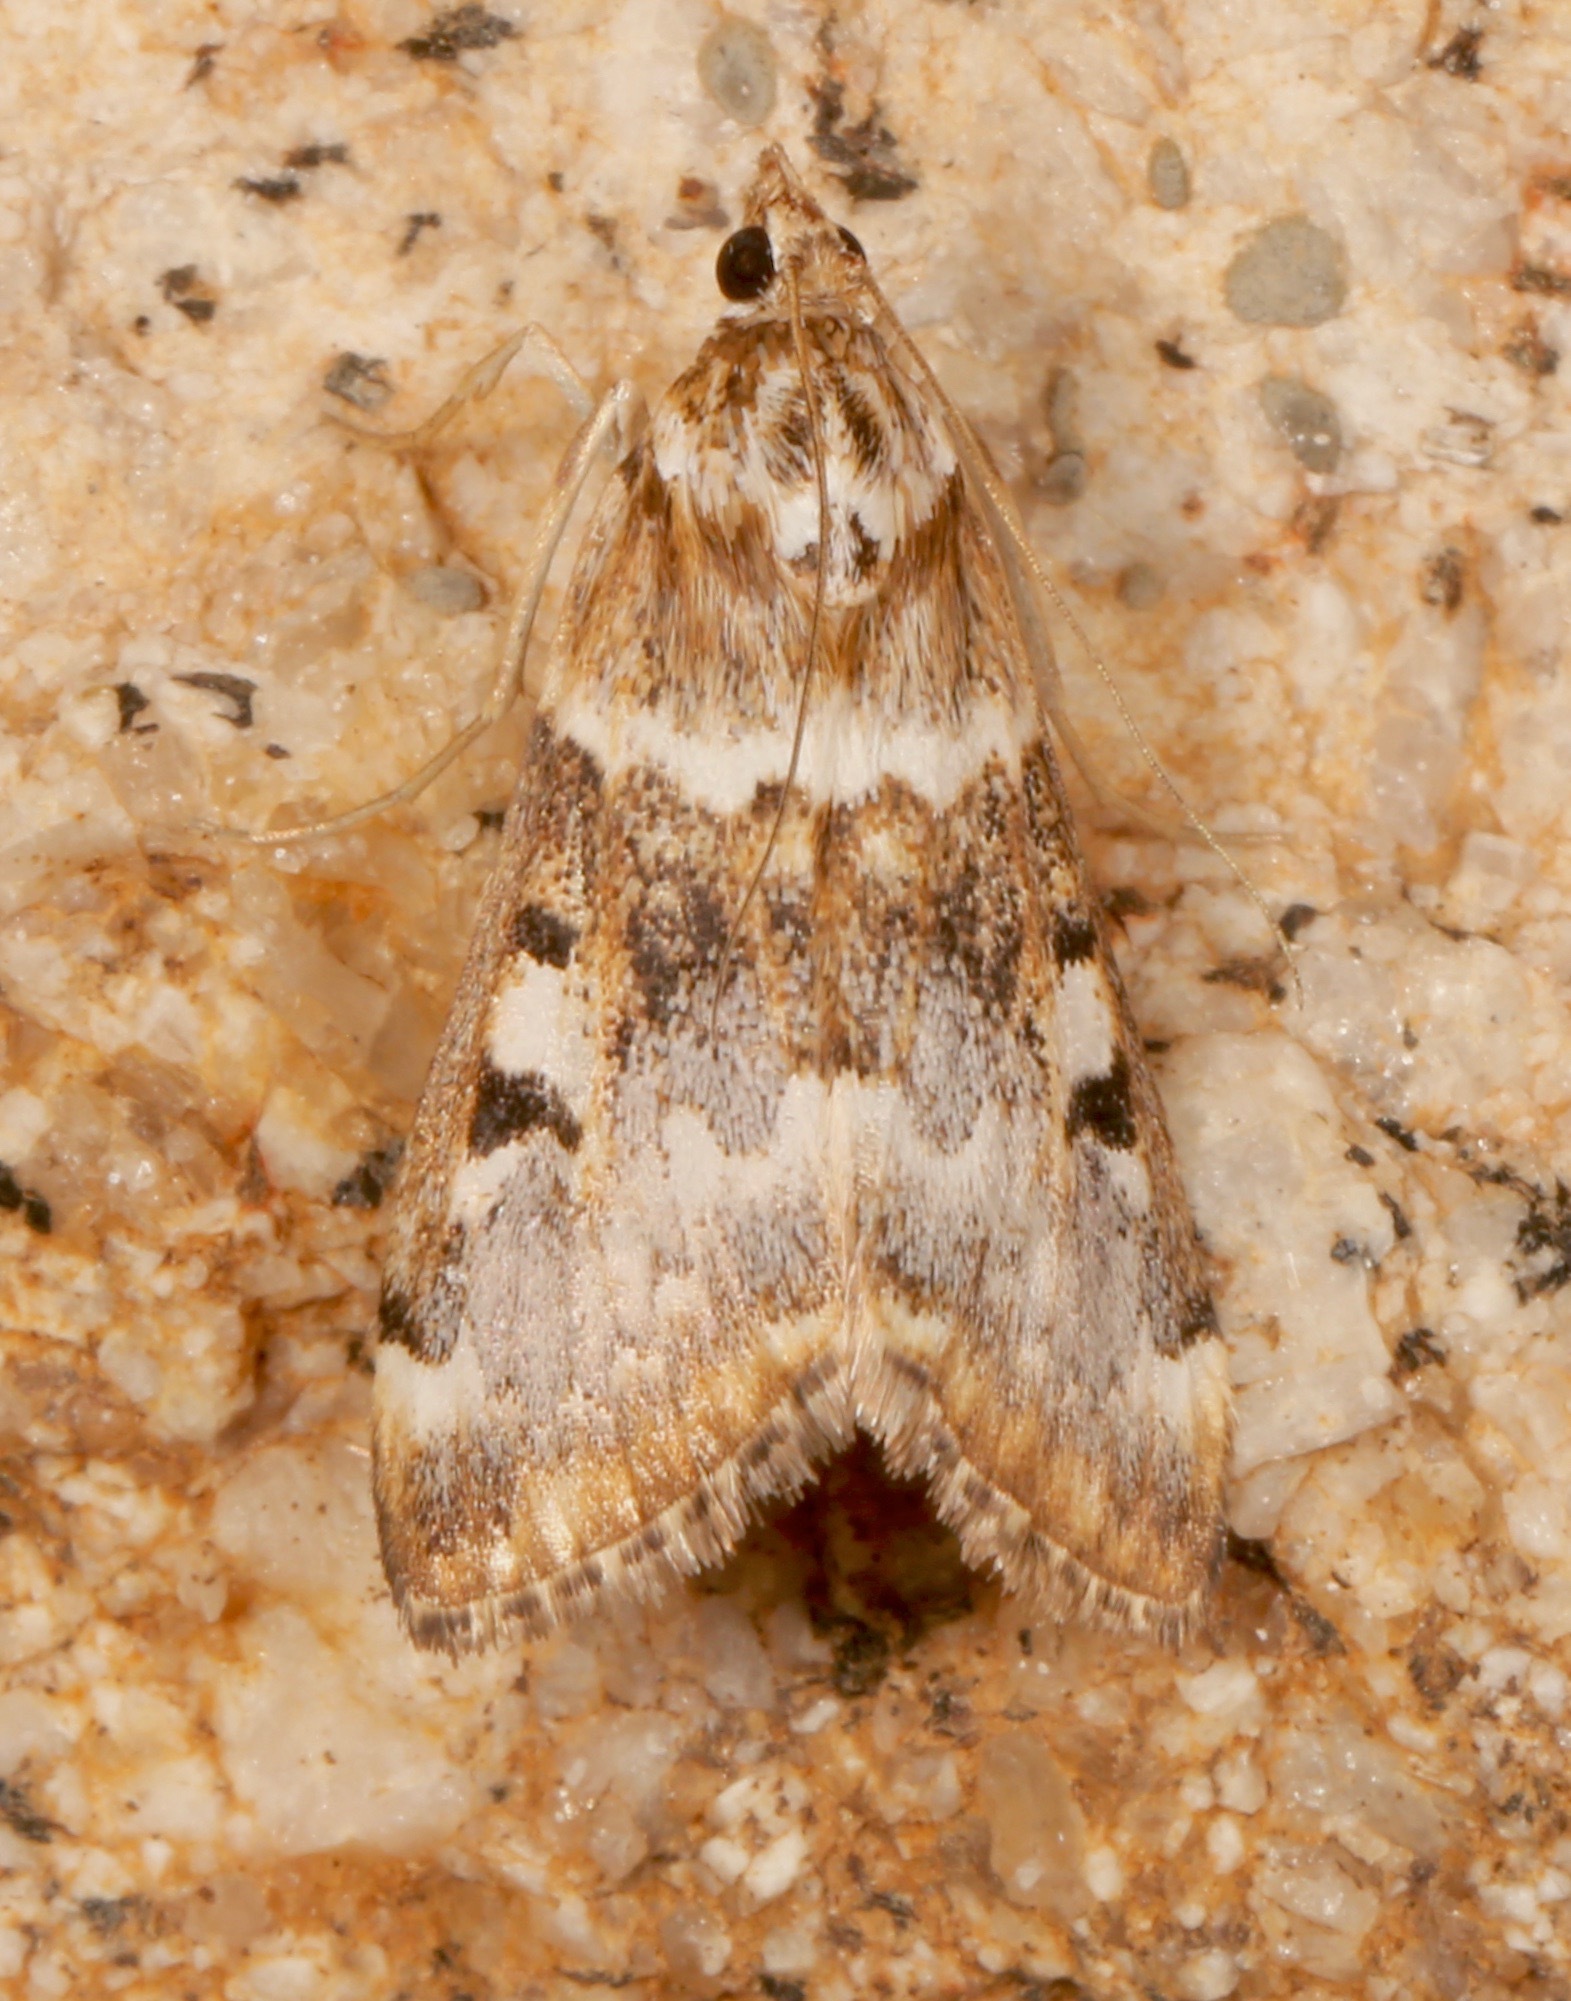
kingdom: Animalia
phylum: Arthropoda
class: Insecta
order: Lepidoptera
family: Crambidae
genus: Loxostege
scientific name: Loxostege kearfottalis
